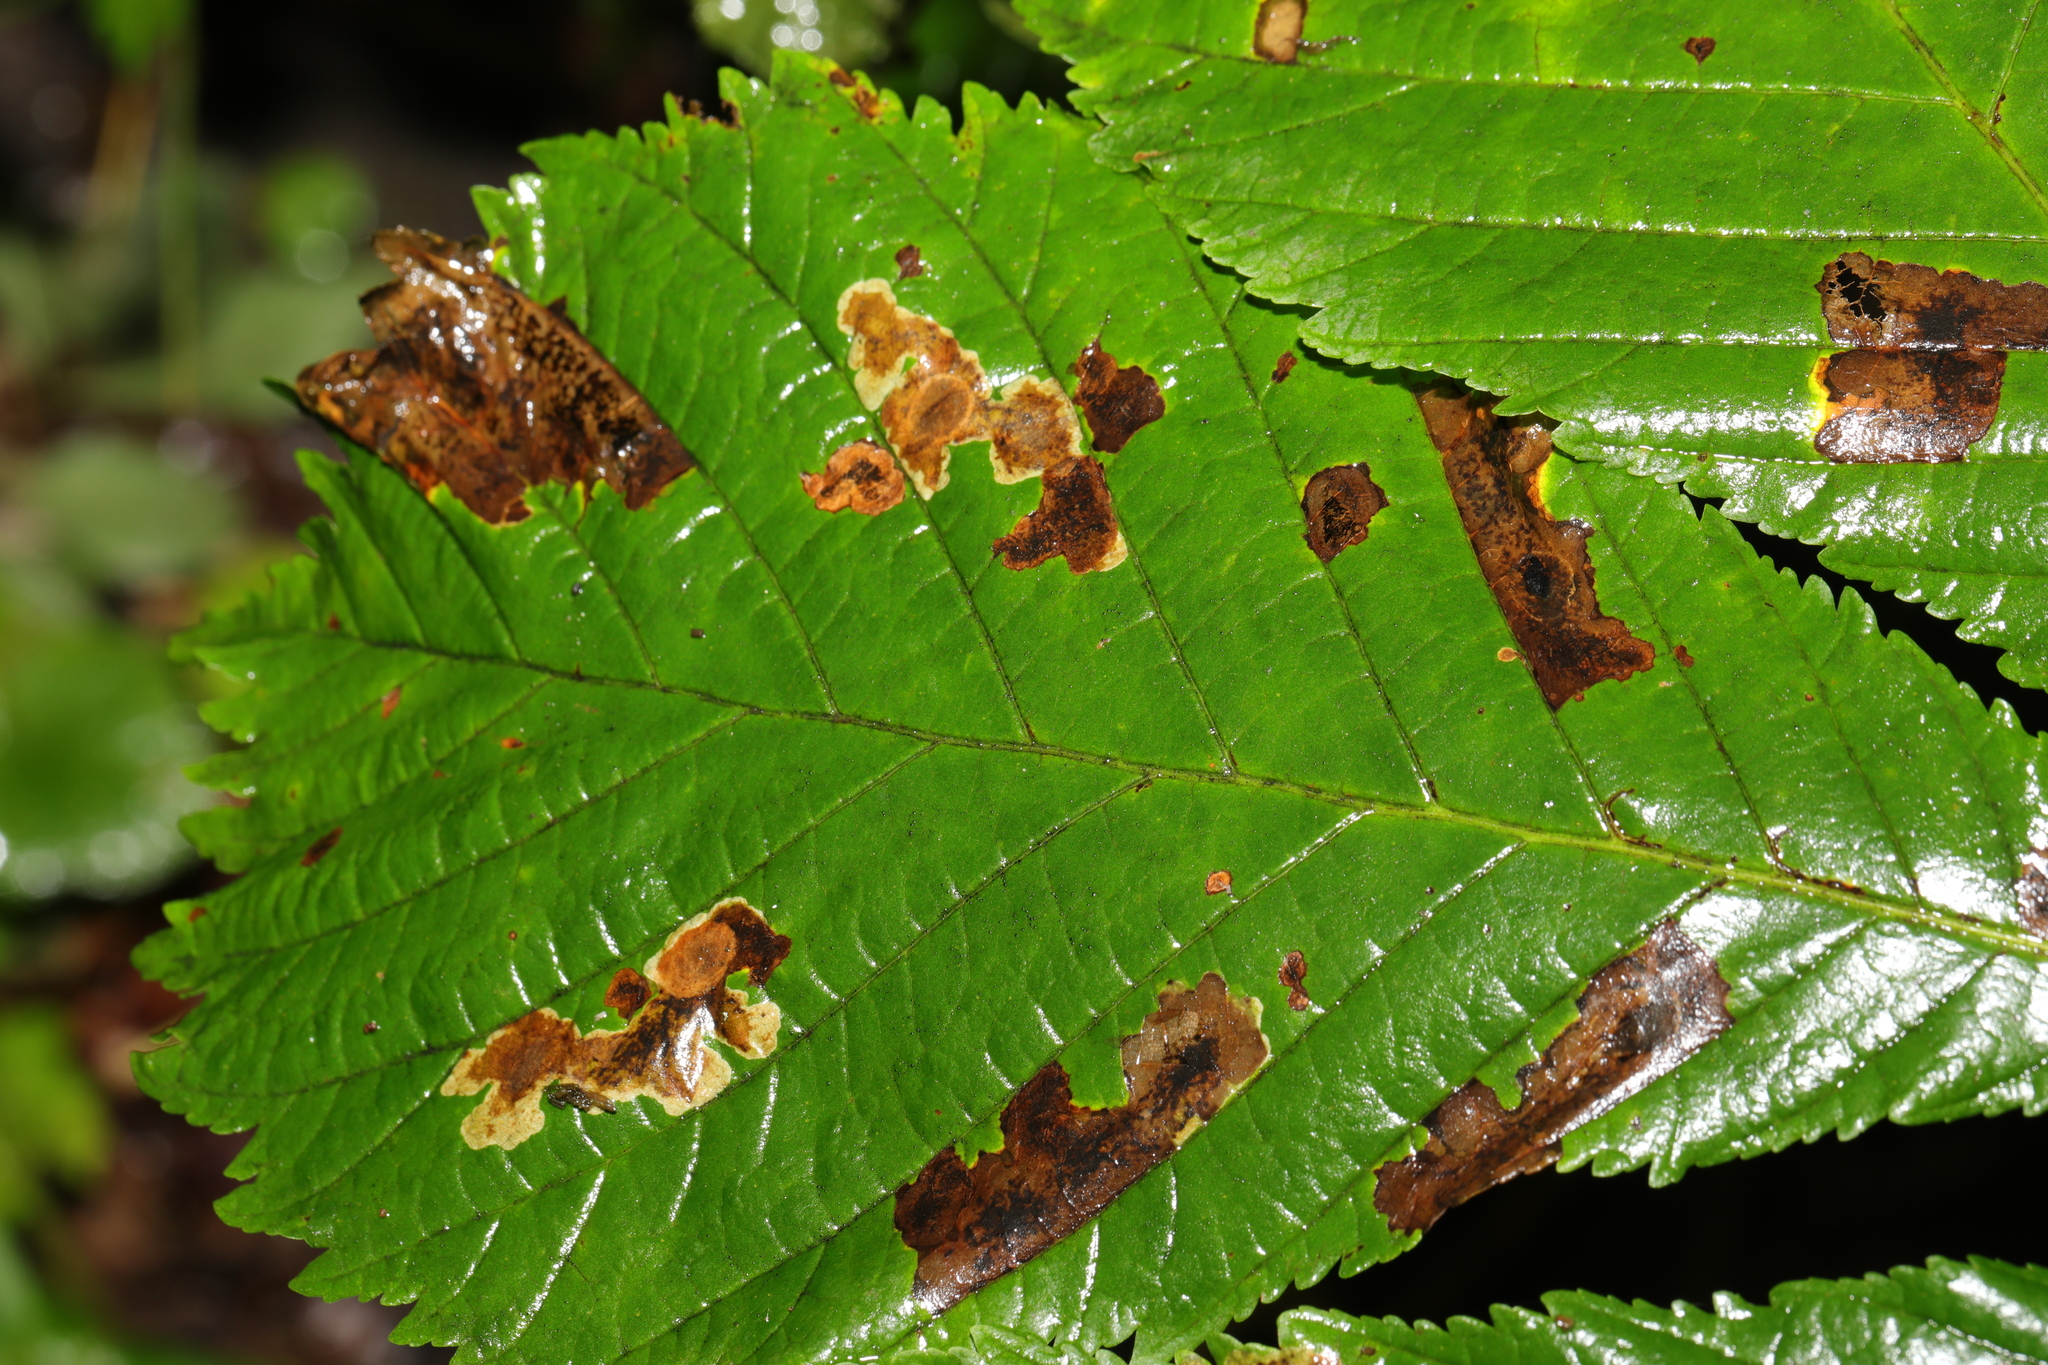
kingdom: Animalia
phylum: Arthropoda
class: Insecta
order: Lepidoptera
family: Gracillariidae
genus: Cameraria
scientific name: Cameraria ohridella
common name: Horse-chestnut leaf-miner
